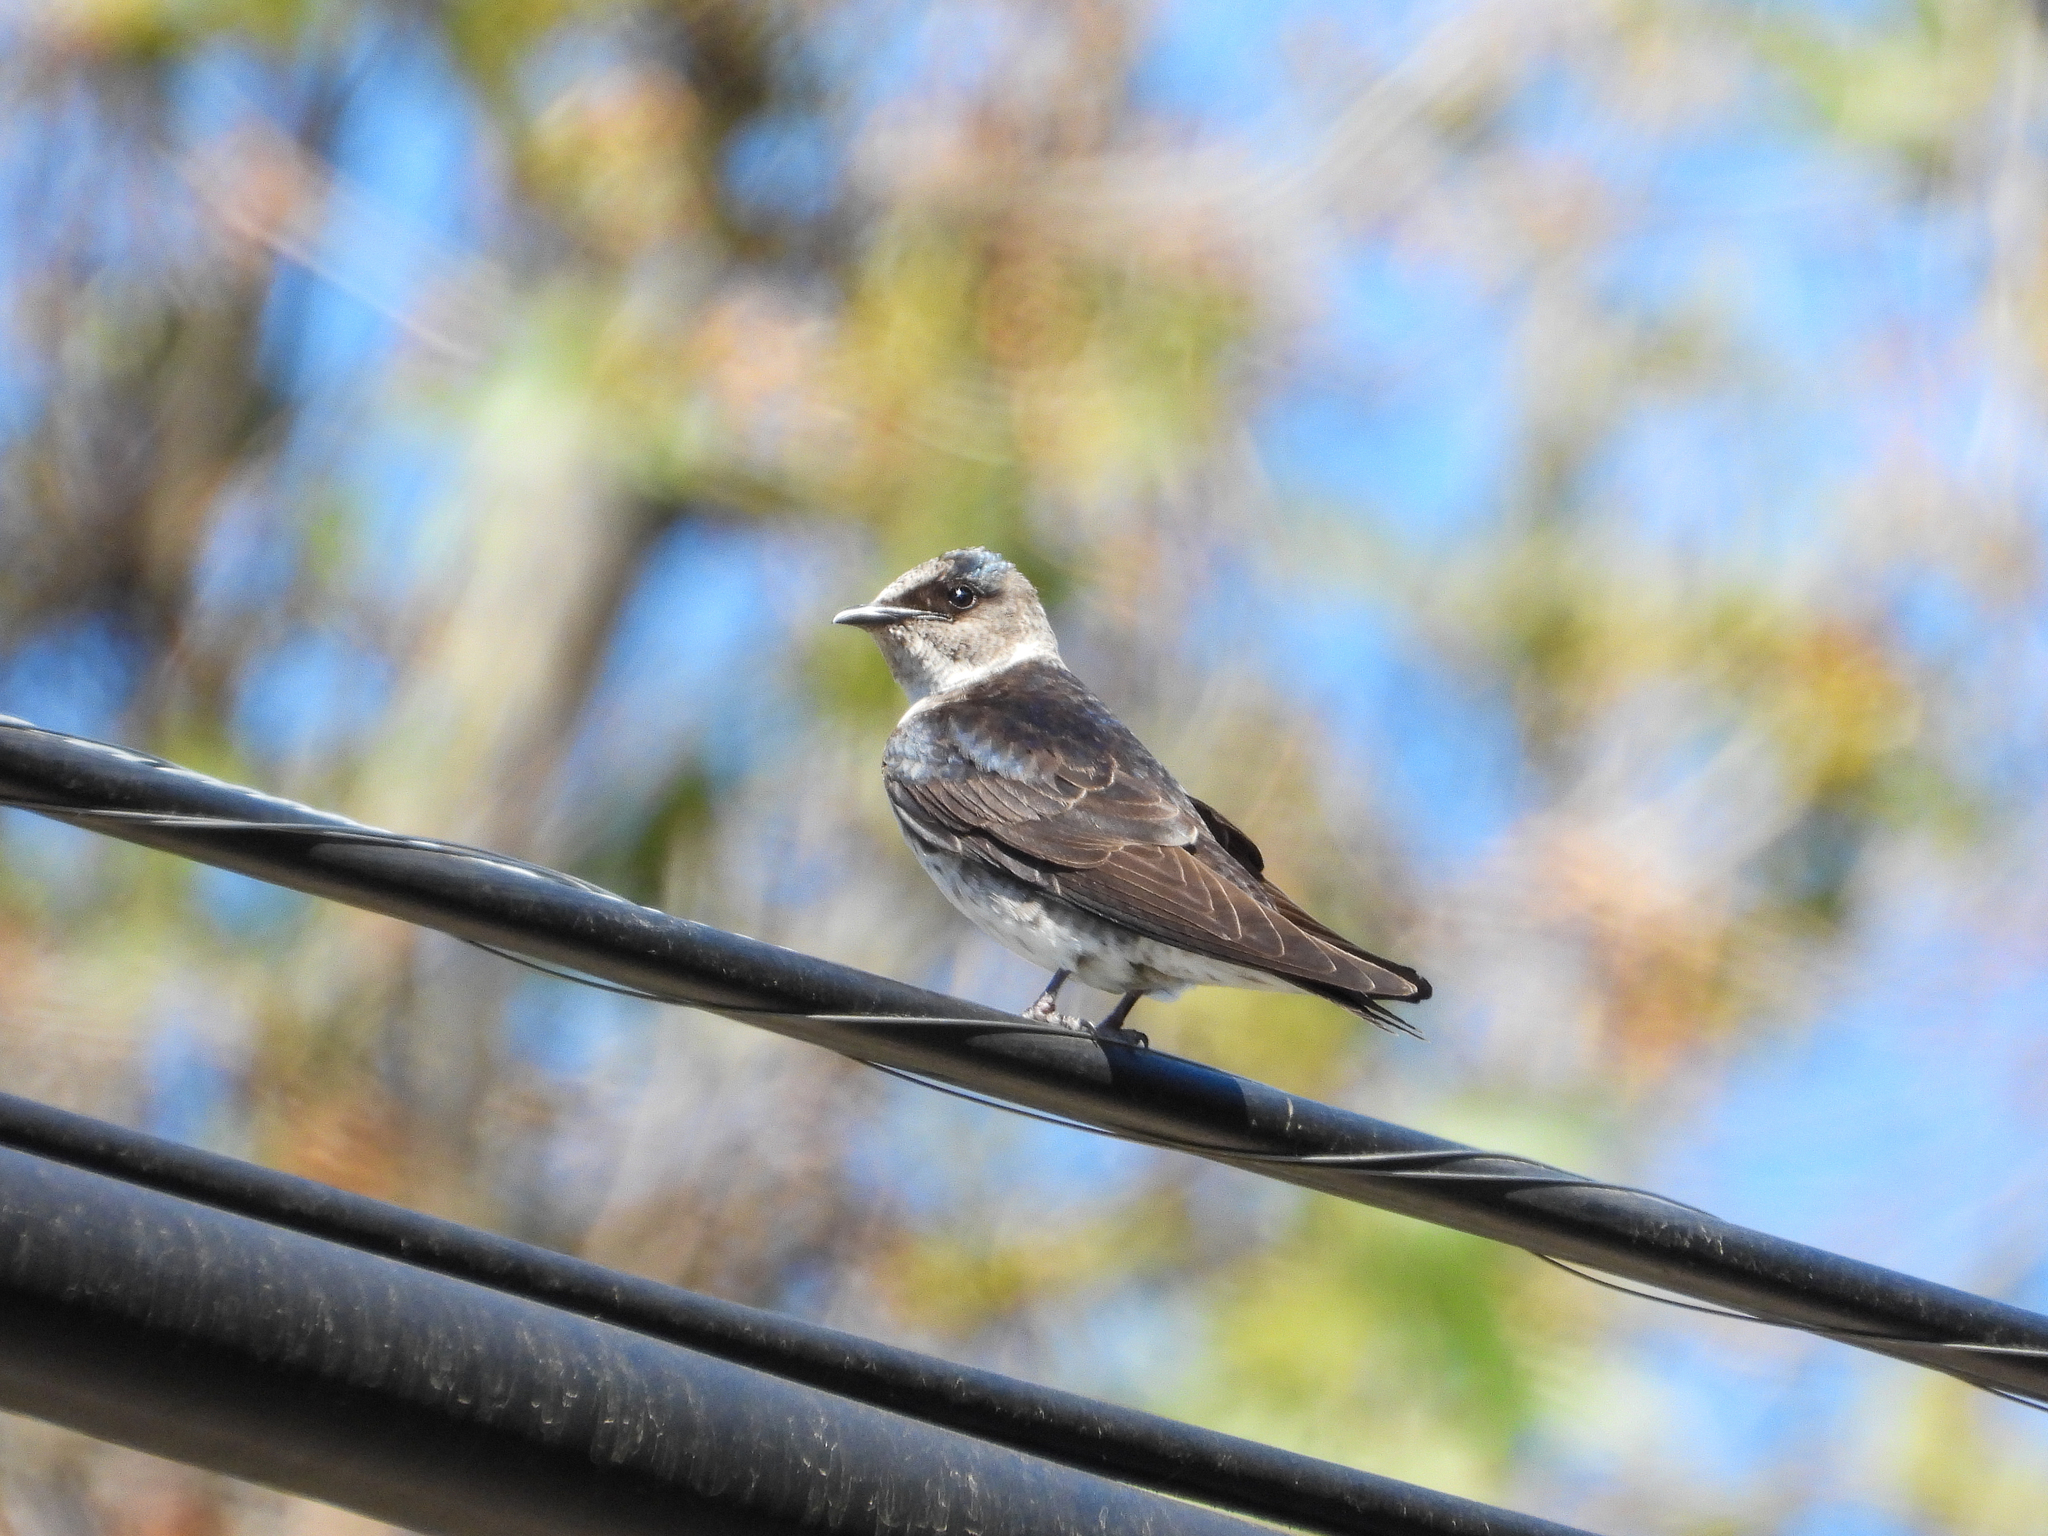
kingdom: Animalia
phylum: Chordata
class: Aves
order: Passeriformes
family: Hirundinidae
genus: Progne
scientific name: Progne subis
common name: Purple martin
